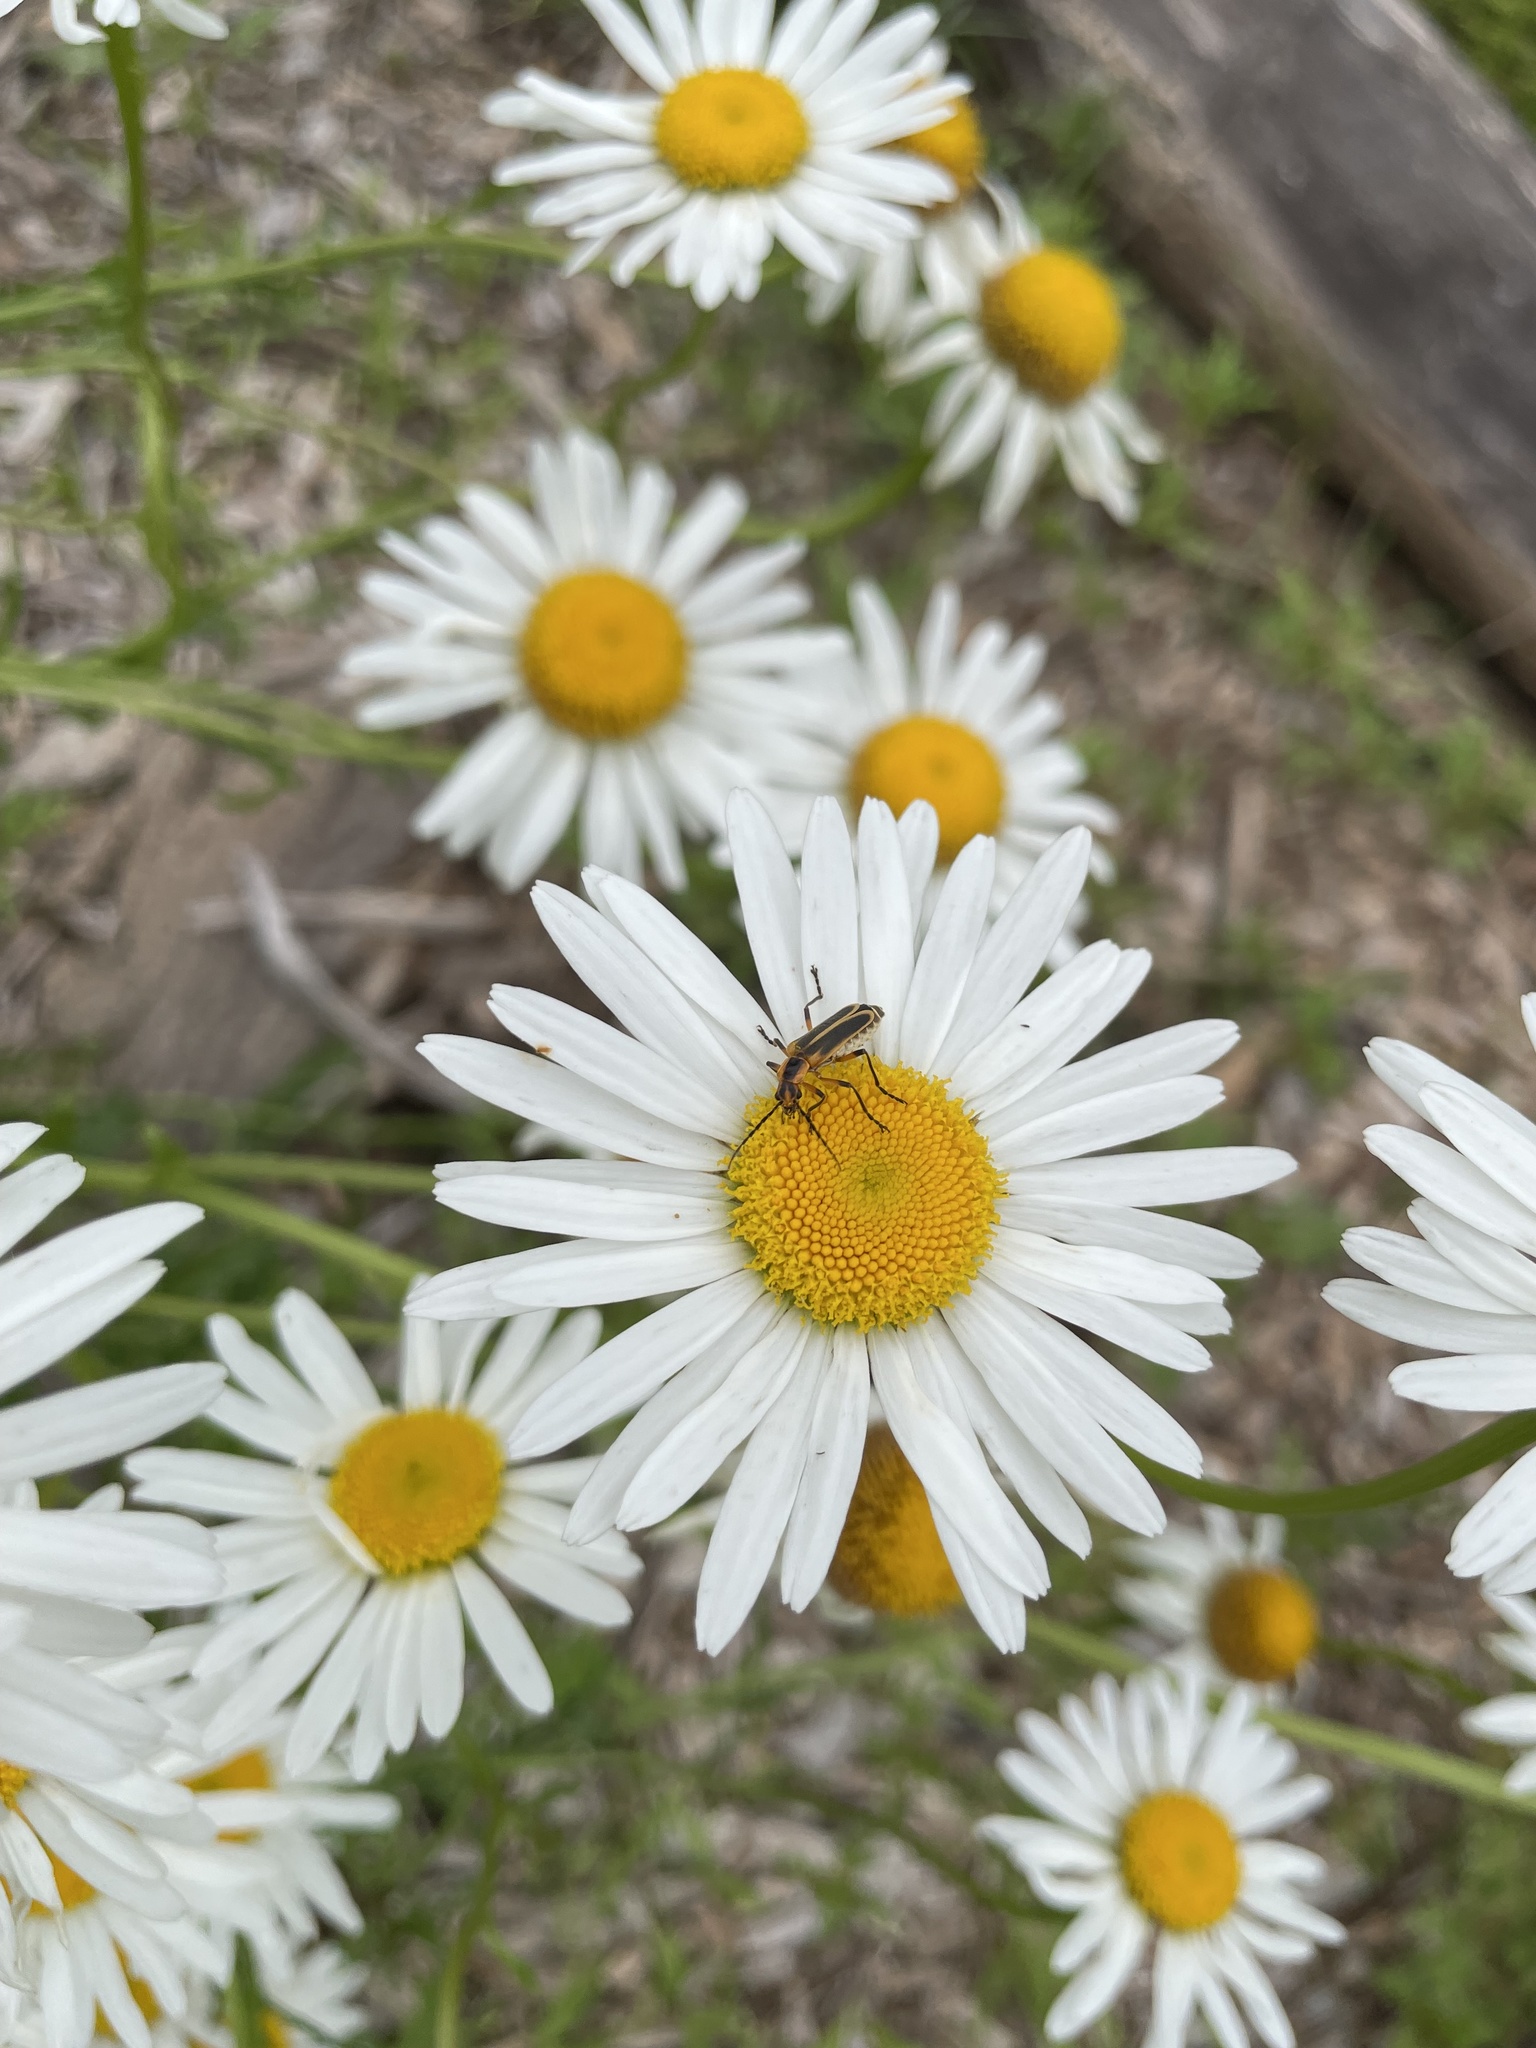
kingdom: Animalia
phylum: Arthropoda
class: Insecta
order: Coleoptera
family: Cantharidae
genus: Chauliognathus
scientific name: Chauliognathus marginatus
